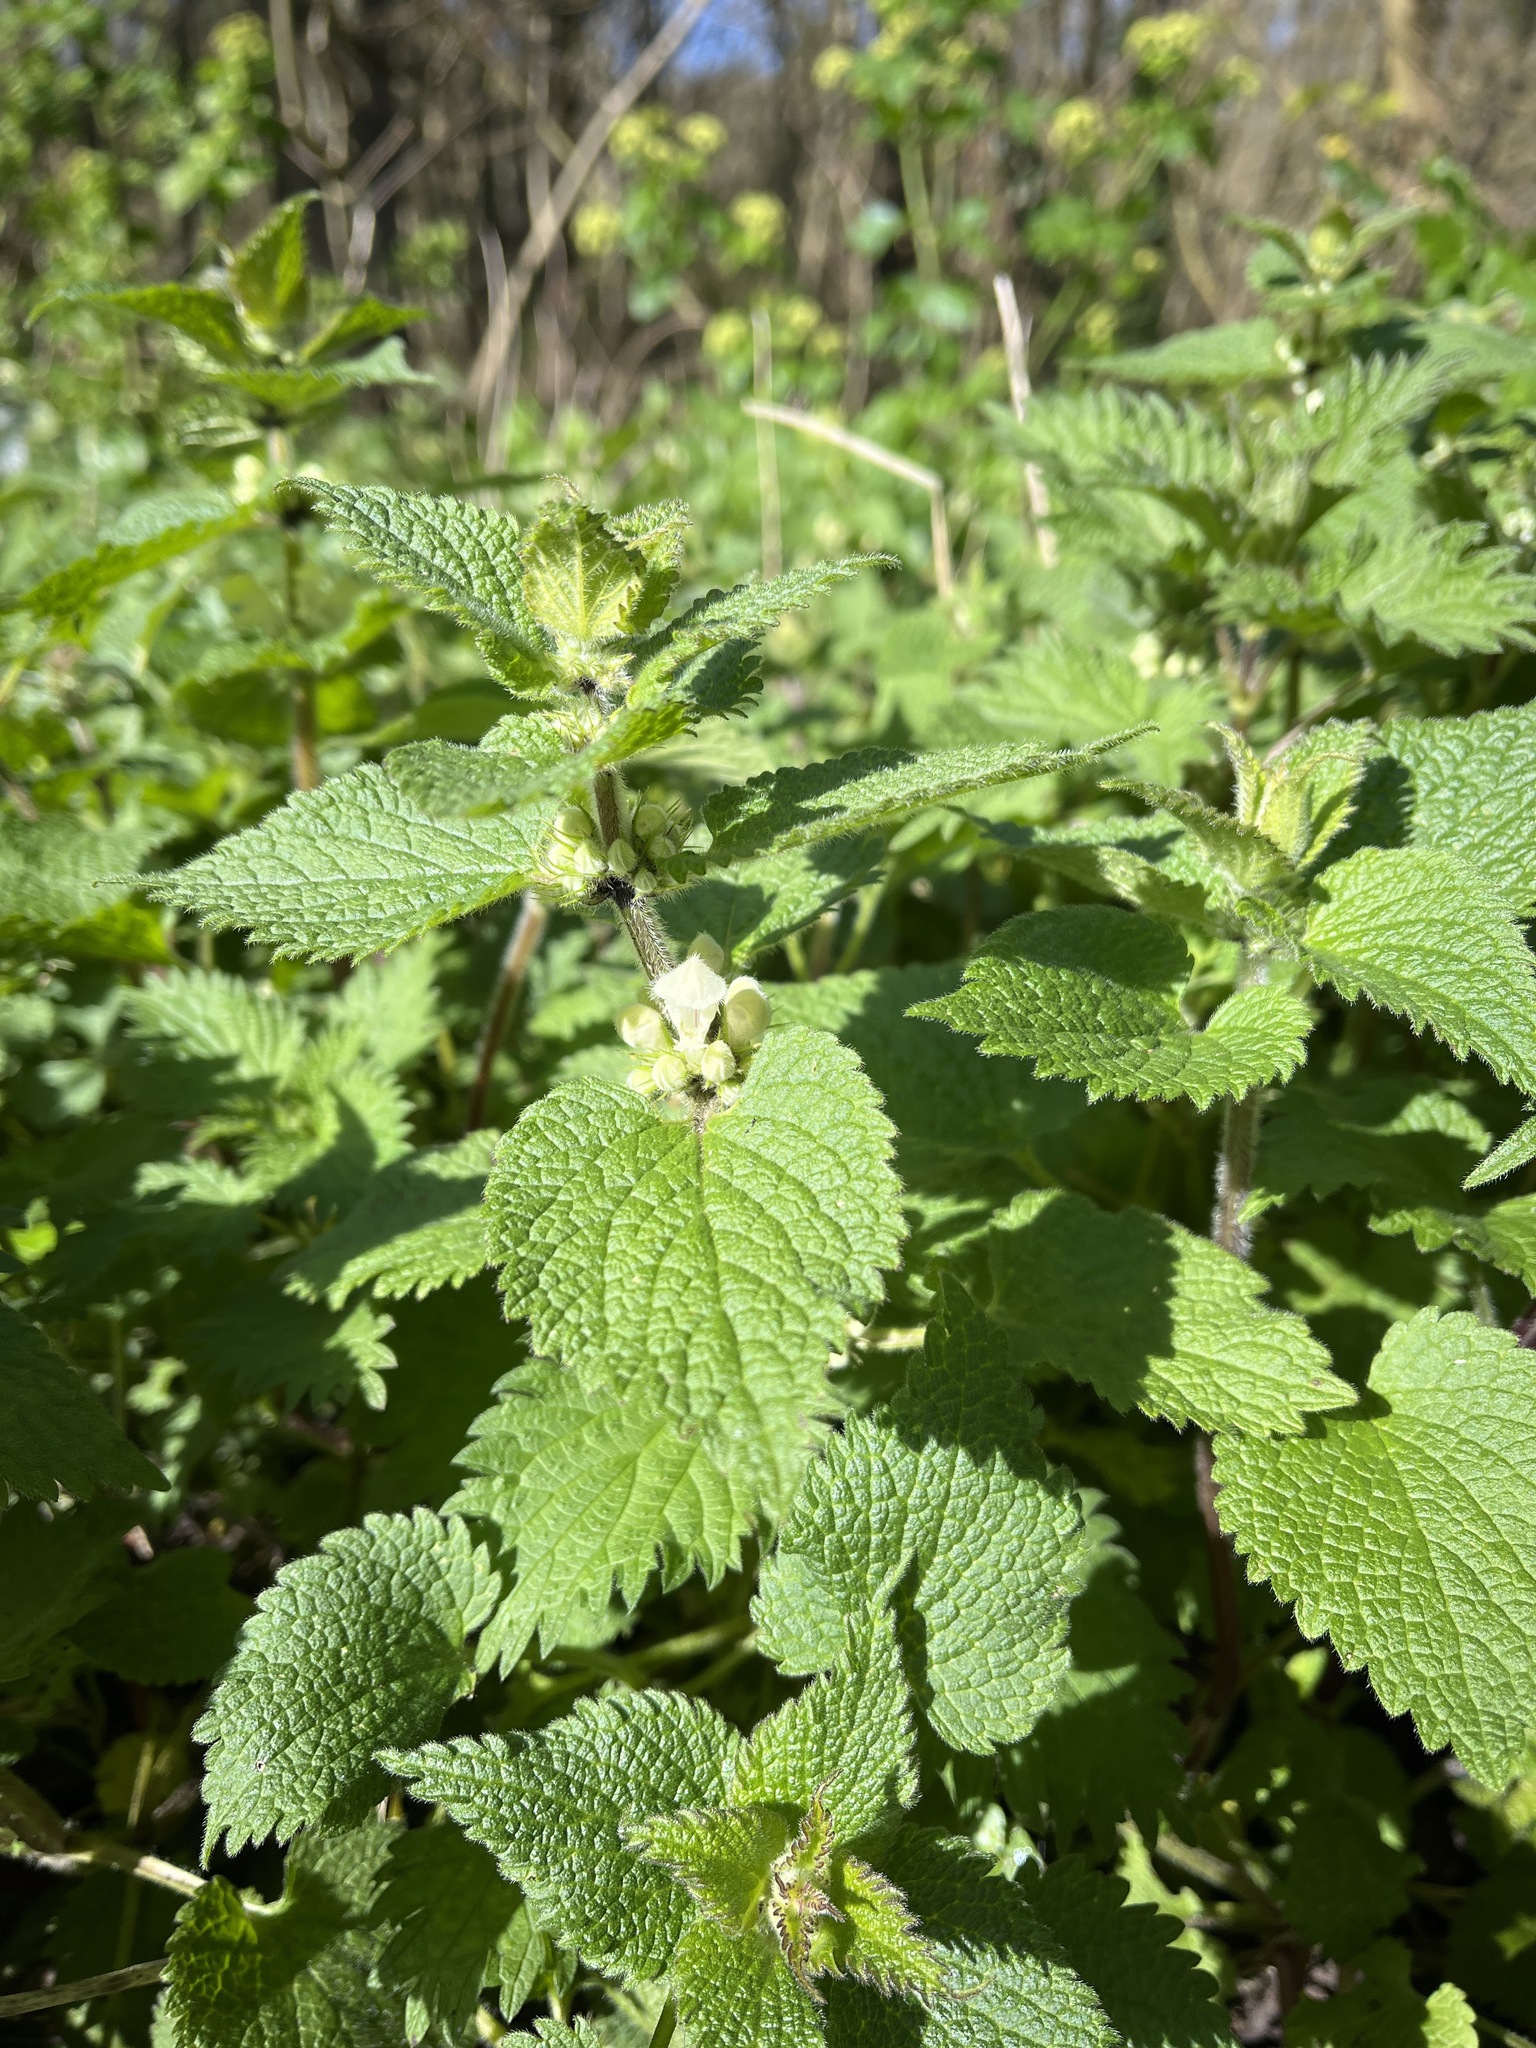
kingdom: Plantae
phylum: Tracheophyta
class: Magnoliopsida
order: Lamiales
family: Lamiaceae
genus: Lamium
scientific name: Lamium album
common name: White dead-nettle
